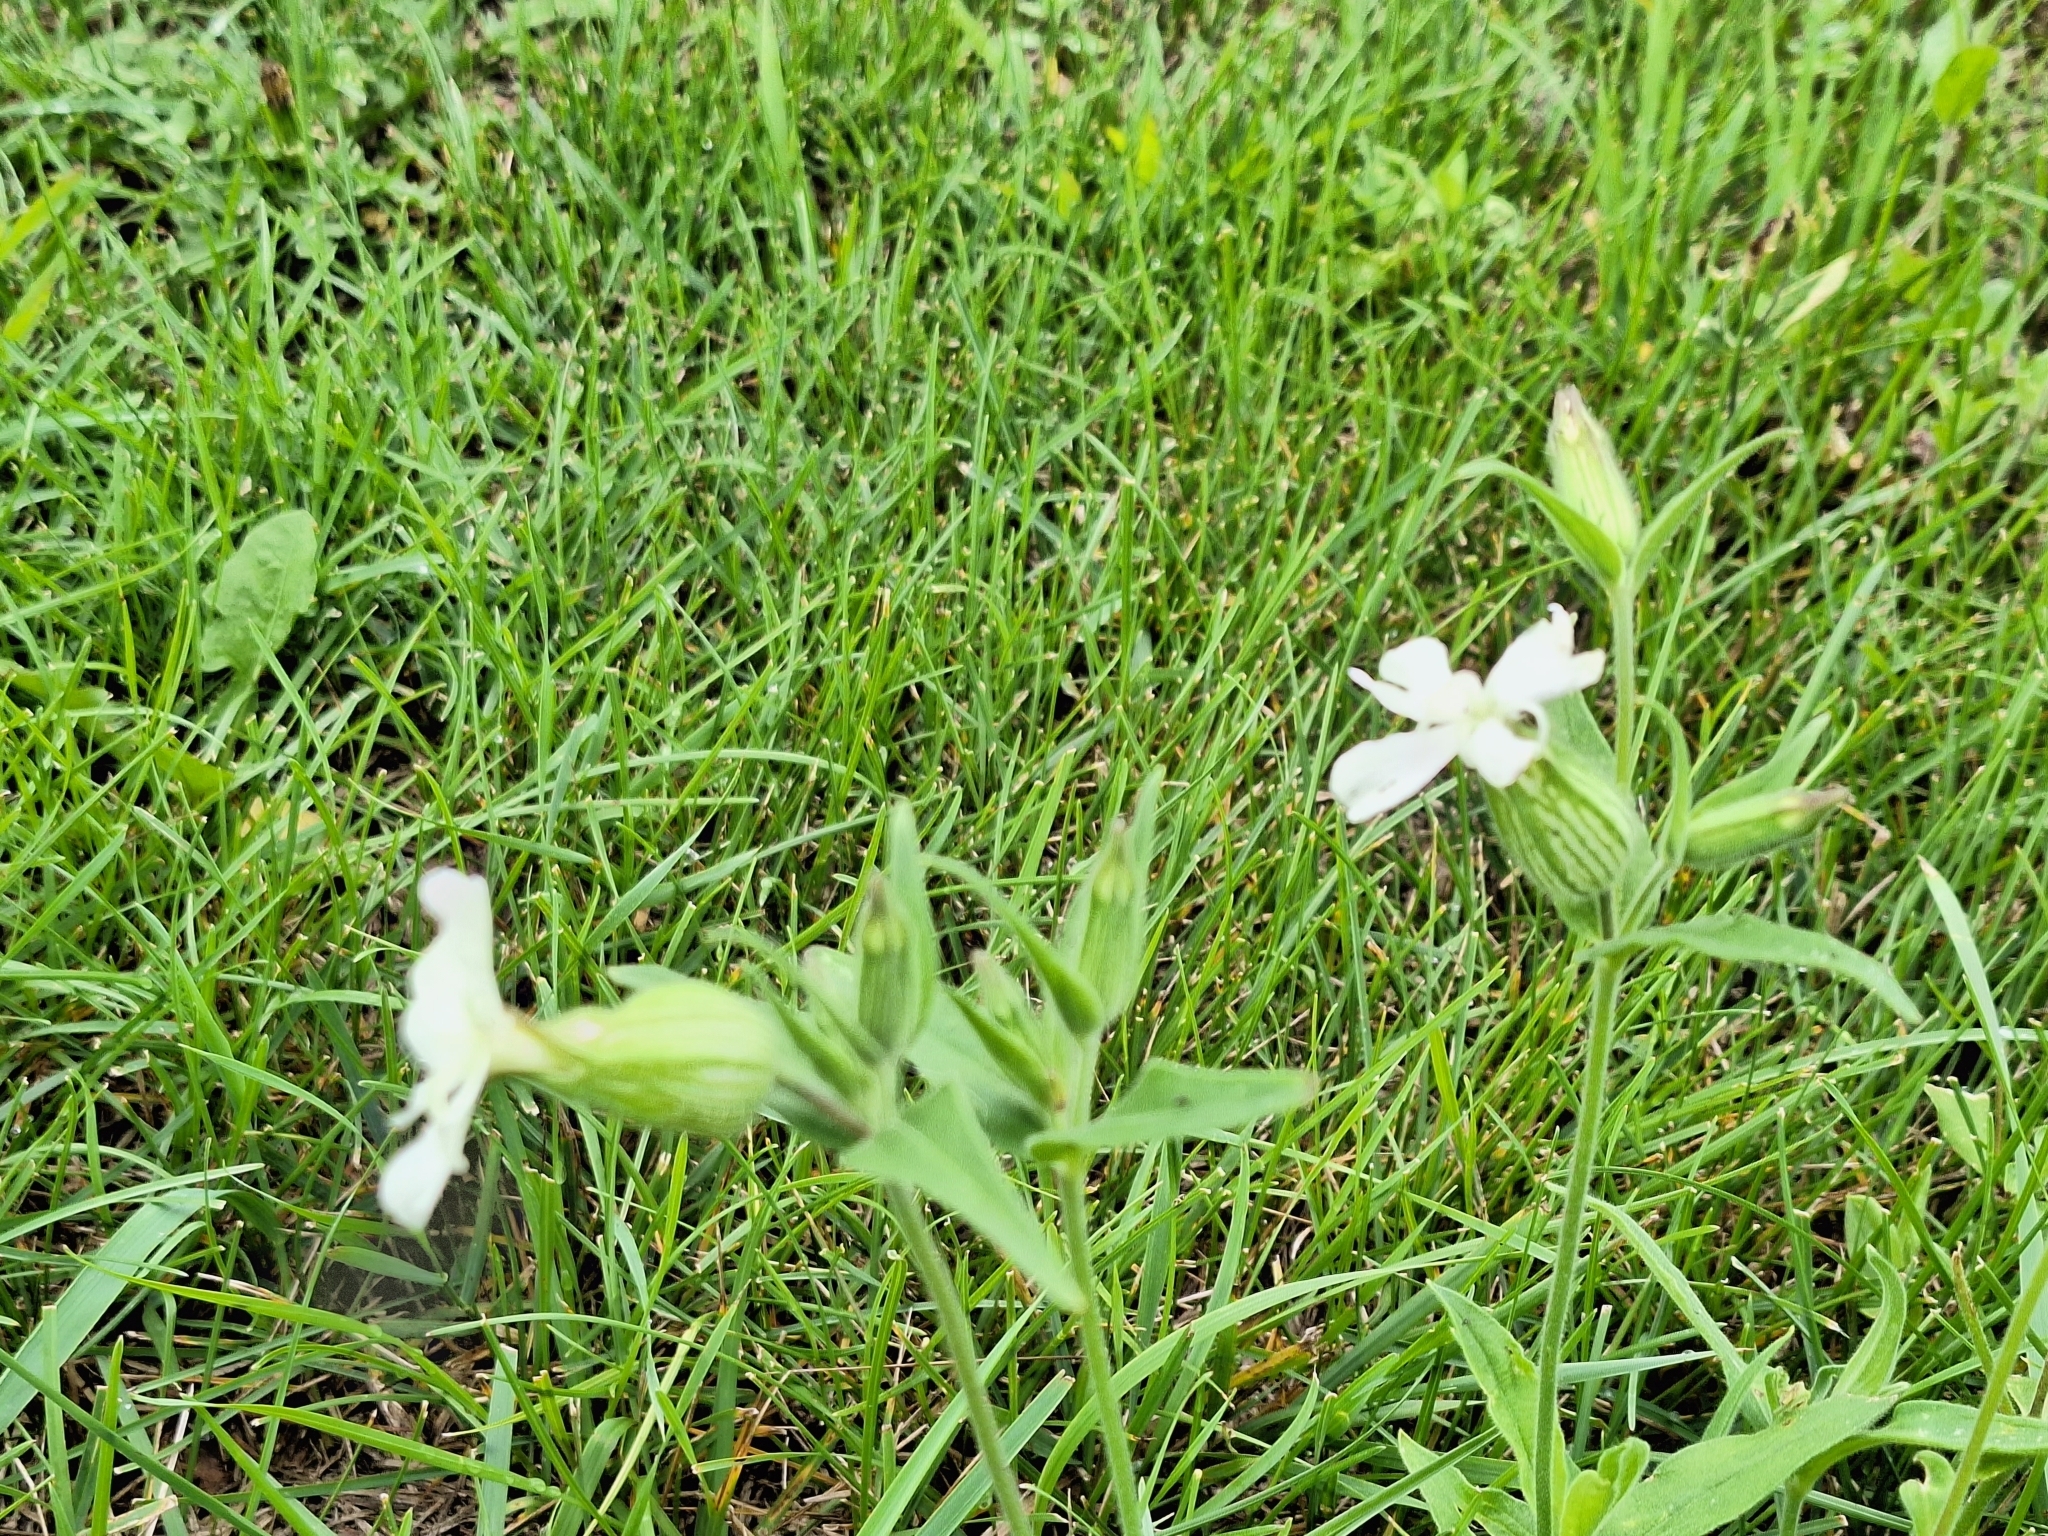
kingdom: Plantae
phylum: Tracheophyta
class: Magnoliopsida
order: Caryophyllales
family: Caryophyllaceae
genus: Silene
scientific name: Silene latifolia
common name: White campion
